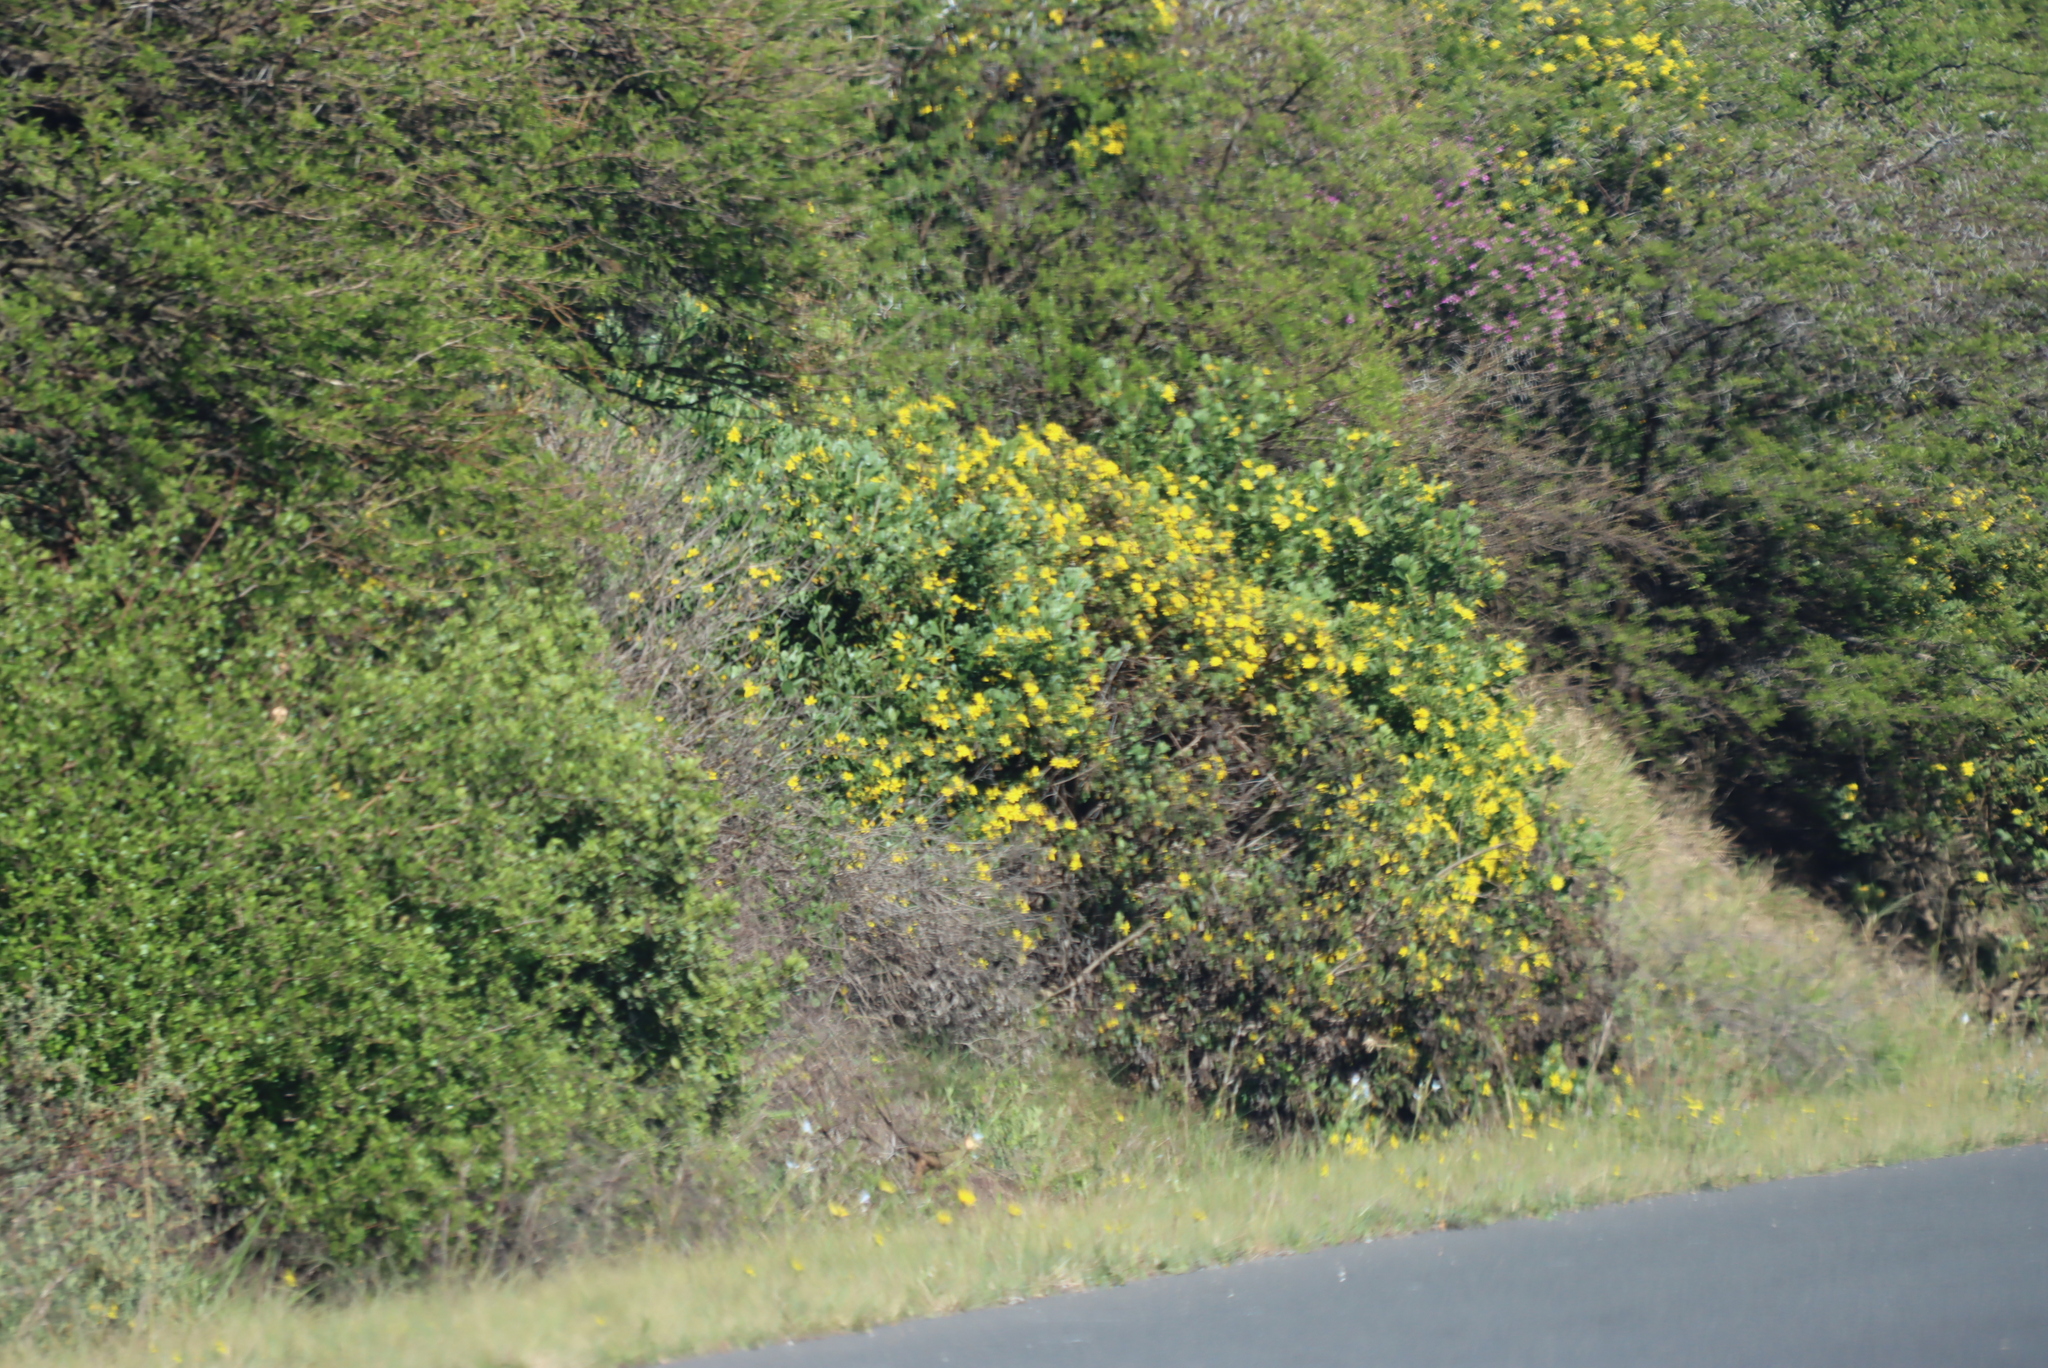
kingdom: Plantae
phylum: Tracheophyta
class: Magnoliopsida
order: Asterales
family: Asteraceae
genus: Osteospermum
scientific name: Osteospermum moniliferum
